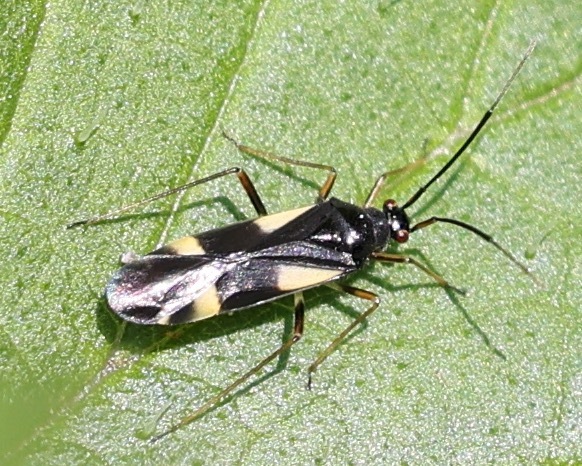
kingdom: Animalia
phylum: Arthropoda
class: Insecta
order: Hemiptera
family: Miridae
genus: Dryophilocoris
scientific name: Dryophilocoris flavoquadrimaculatus
